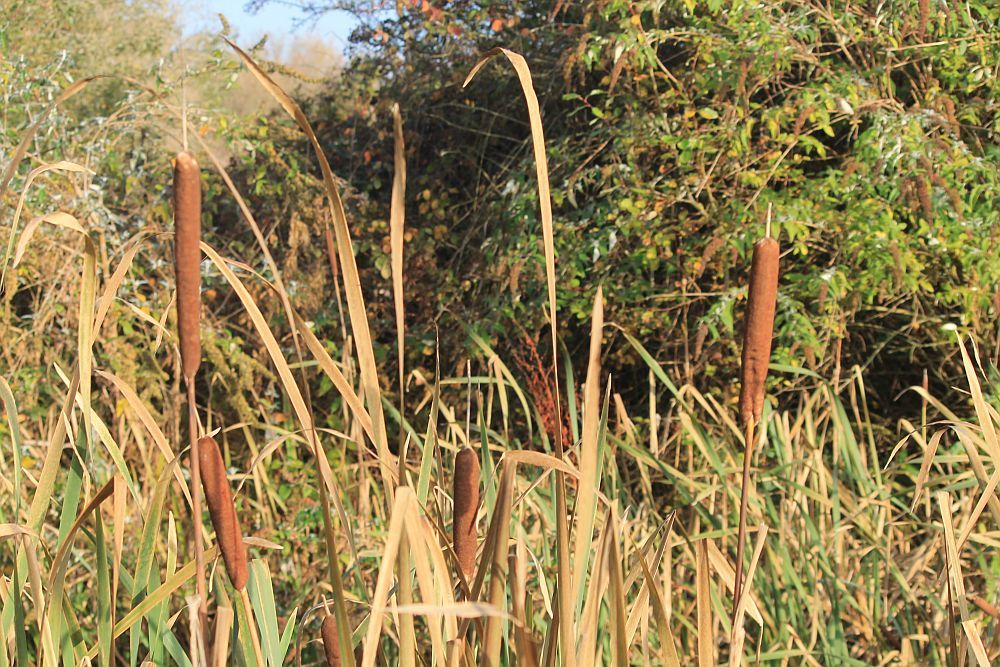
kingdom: Plantae
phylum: Tracheophyta
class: Liliopsida
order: Poales
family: Typhaceae
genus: Typha
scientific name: Typha latifolia
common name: Broadleaf cattail
